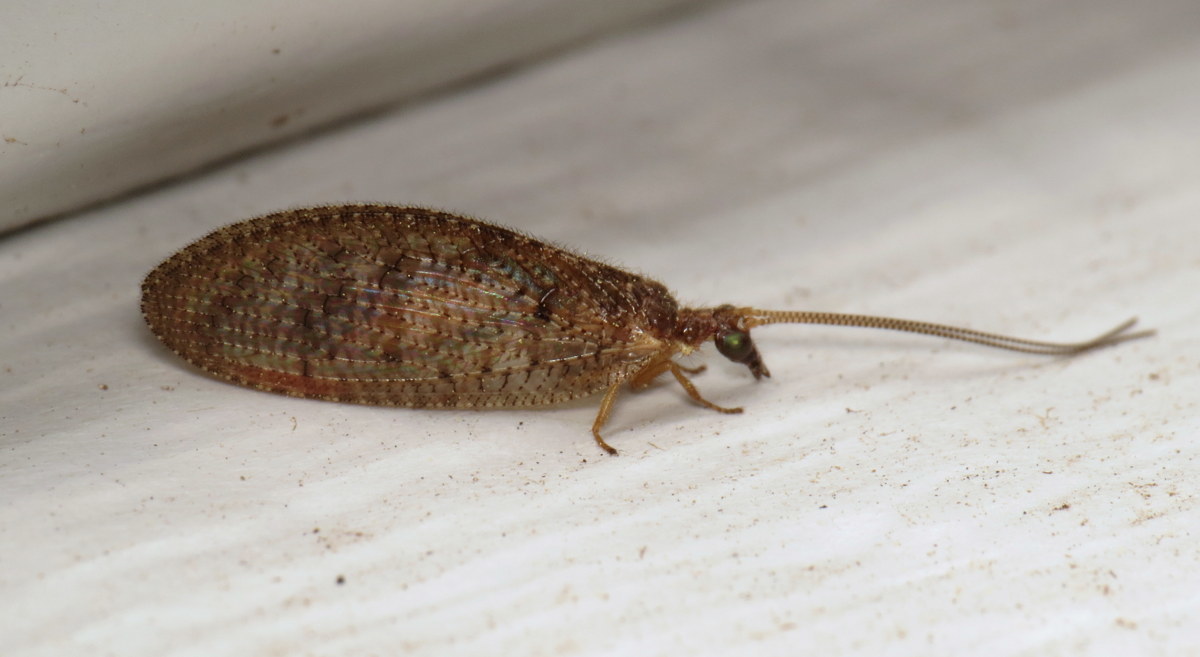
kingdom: Animalia
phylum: Arthropoda
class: Insecta
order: Neuroptera
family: Hemerobiidae
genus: Hemerobius
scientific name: Hemerobius stigma
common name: Brown pine lacewing
